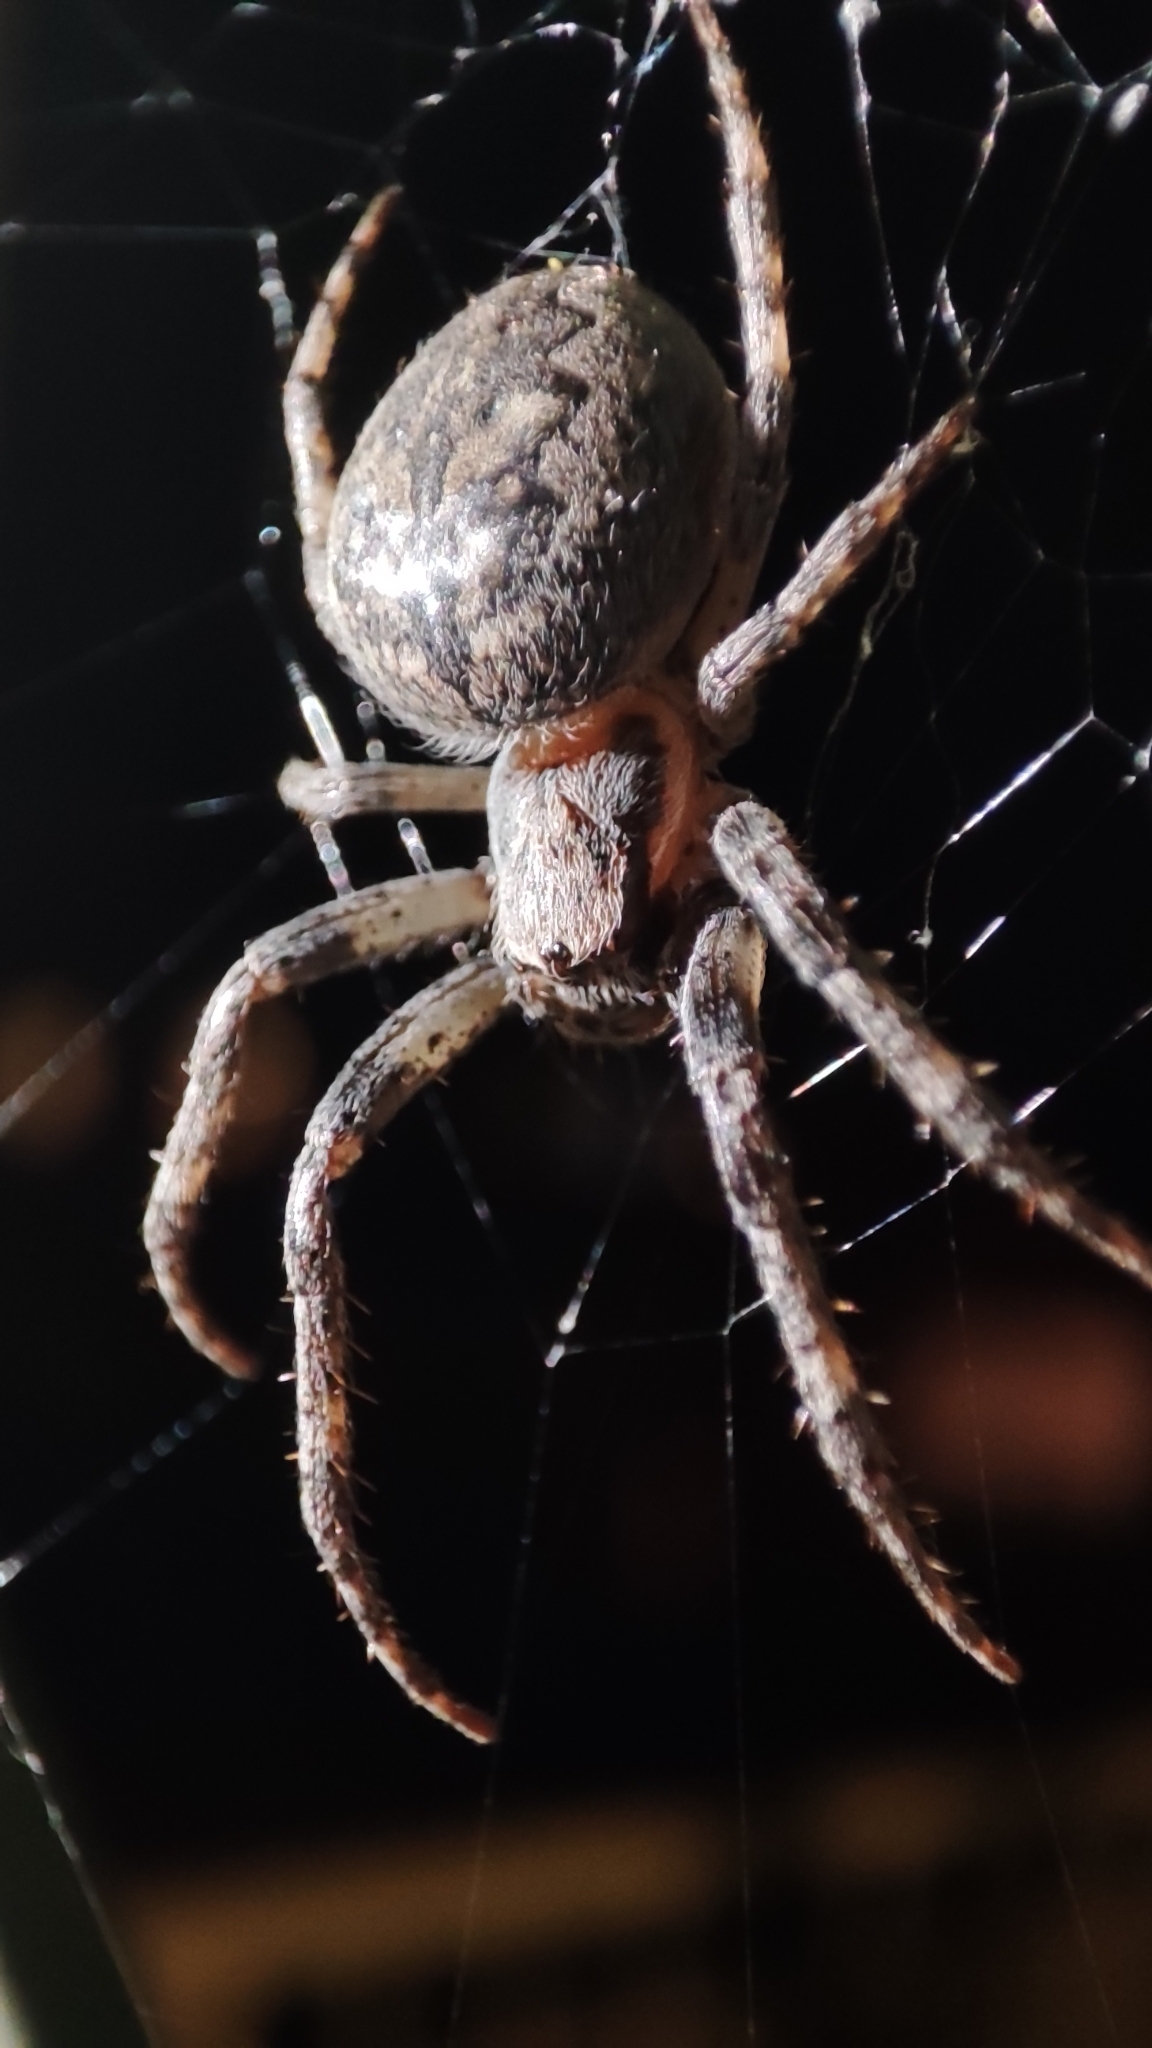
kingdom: Animalia
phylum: Arthropoda
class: Arachnida
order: Araneae
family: Araneidae
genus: Larinioides
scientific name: Larinioides ixobolus
